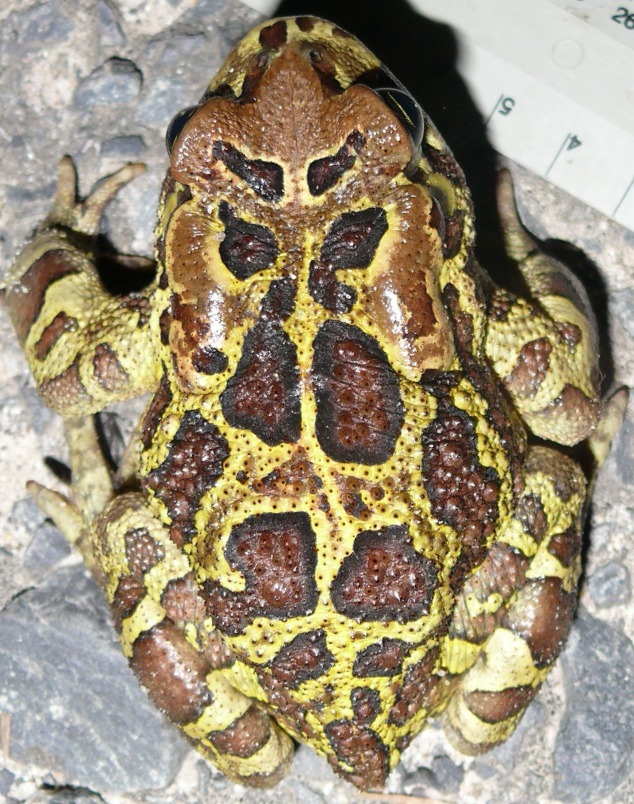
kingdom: Animalia
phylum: Chordata
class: Amphibia
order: Anura
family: Bufonidae
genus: Sclerophrys
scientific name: Sclerophrys pantherina
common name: Panther toad
